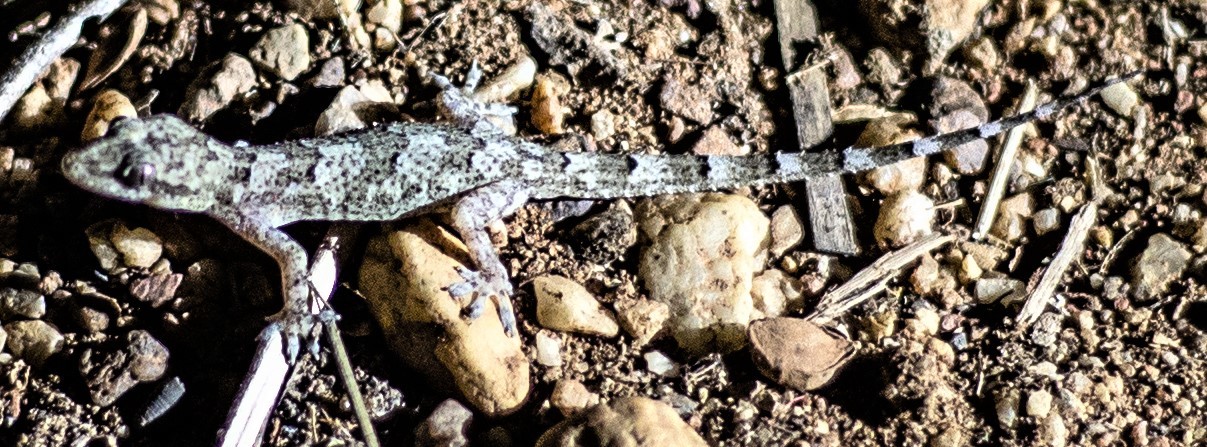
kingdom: Animalia
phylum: Chordata
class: Squamata
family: Gekkonidae
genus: Hemidactylus
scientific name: Hemidactylus mabouia
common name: House gecko
